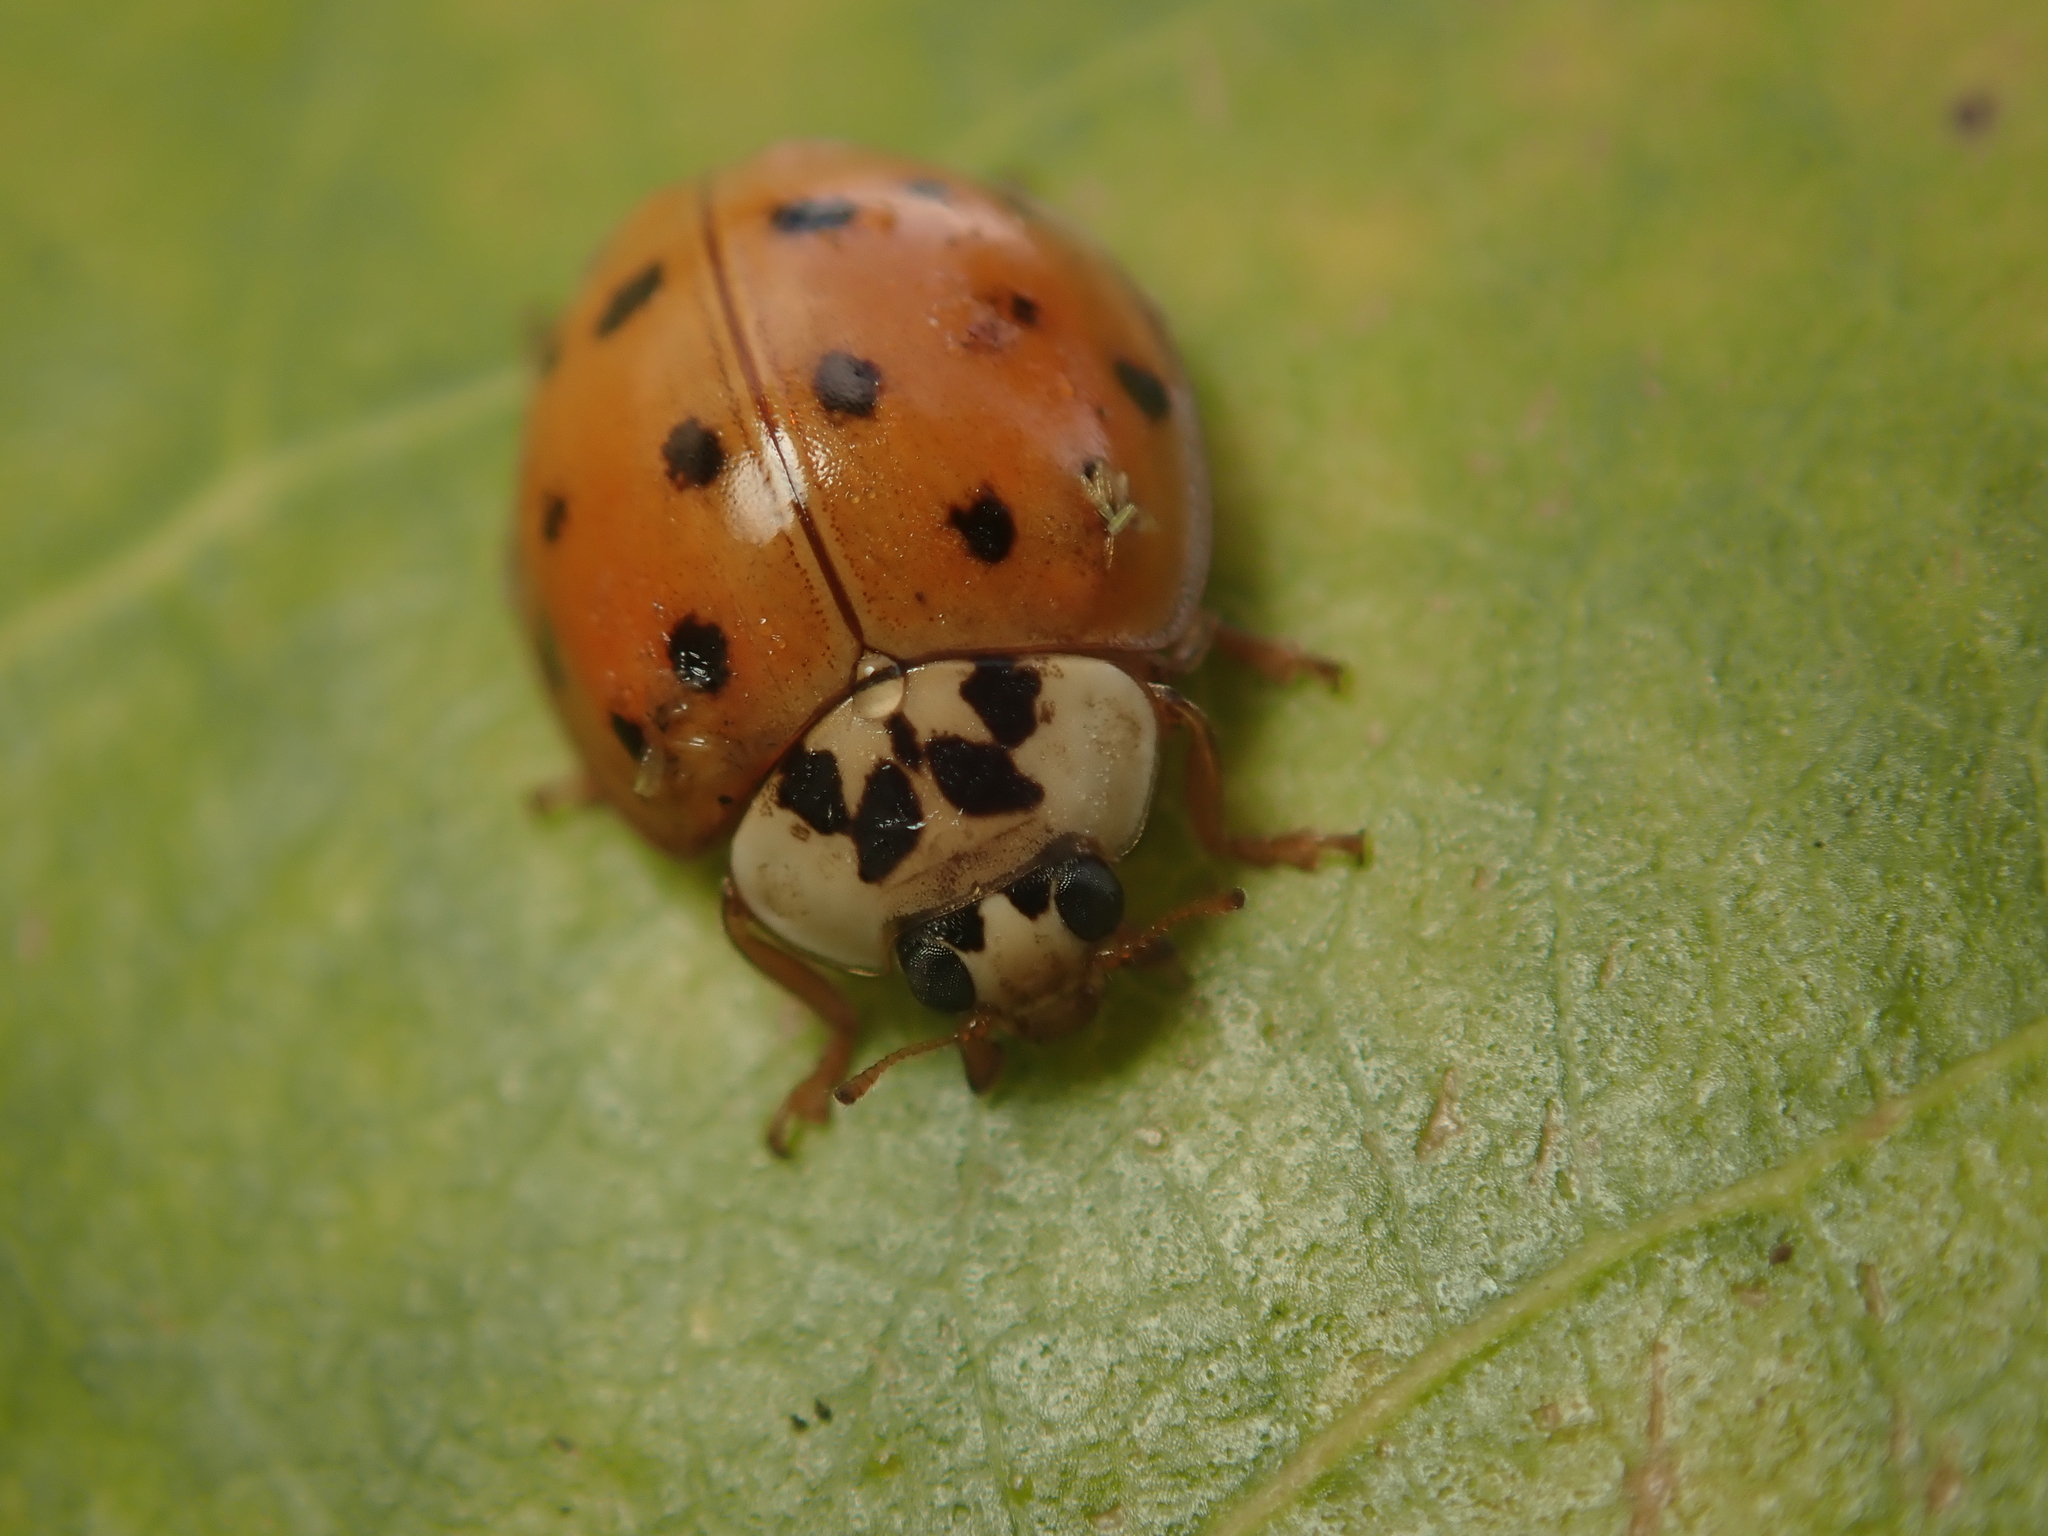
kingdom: Animalia
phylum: Arthropoda
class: Insecta
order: Coleoptera
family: Coccinellidae
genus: Harmonia
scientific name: Harmonia axyridis
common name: Harlequin ladybird
